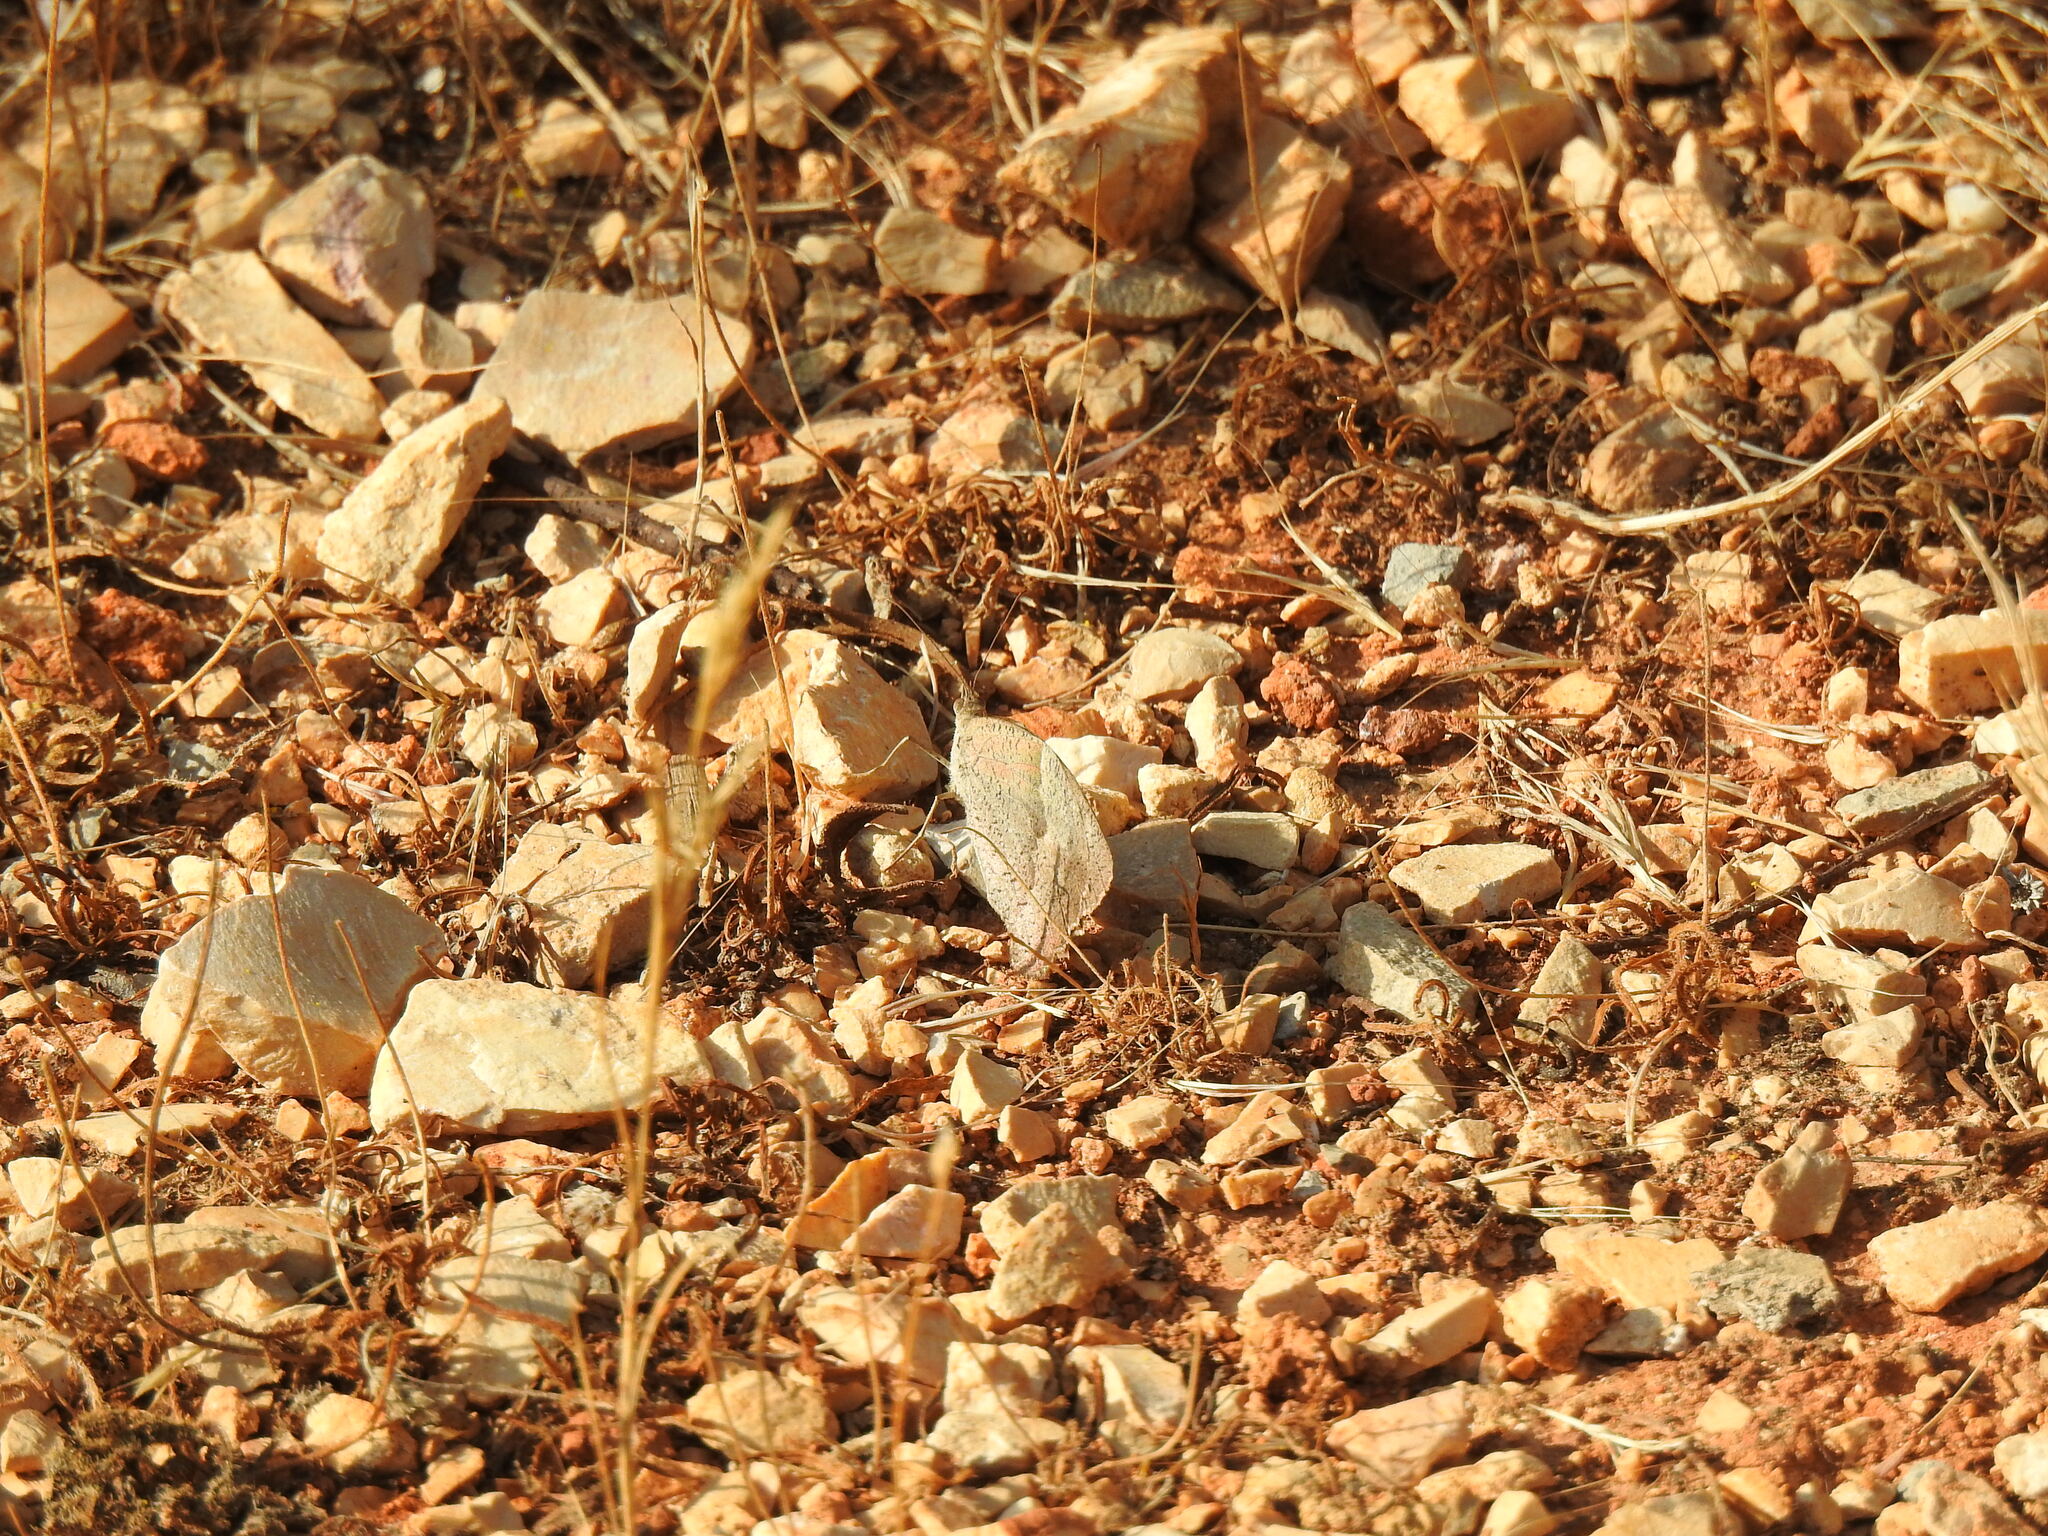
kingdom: Animalia
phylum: Arthropoda
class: Insecta
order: Lepidoptera
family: Nymphalidae
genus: Maniola
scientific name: Maniola jurtina
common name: Meadow brown
